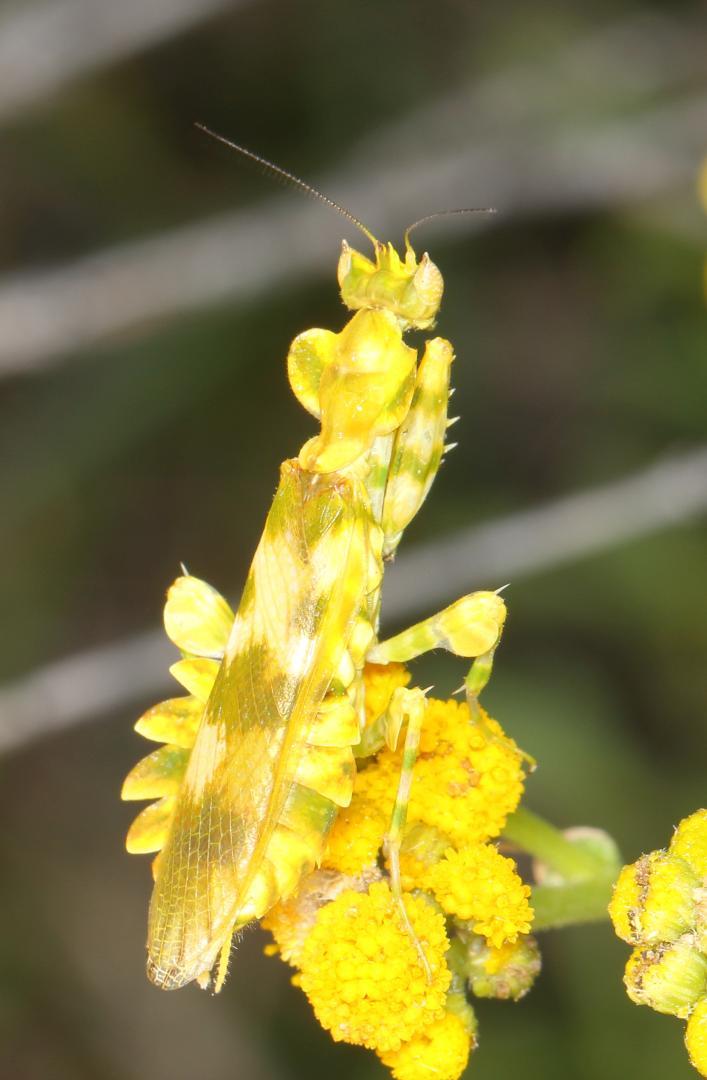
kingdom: Animalia
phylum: Arthropoda
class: Insecta
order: Mantodea
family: Galinthiadidae
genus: Harpagomantis
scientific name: Harpagomantis tricolor
